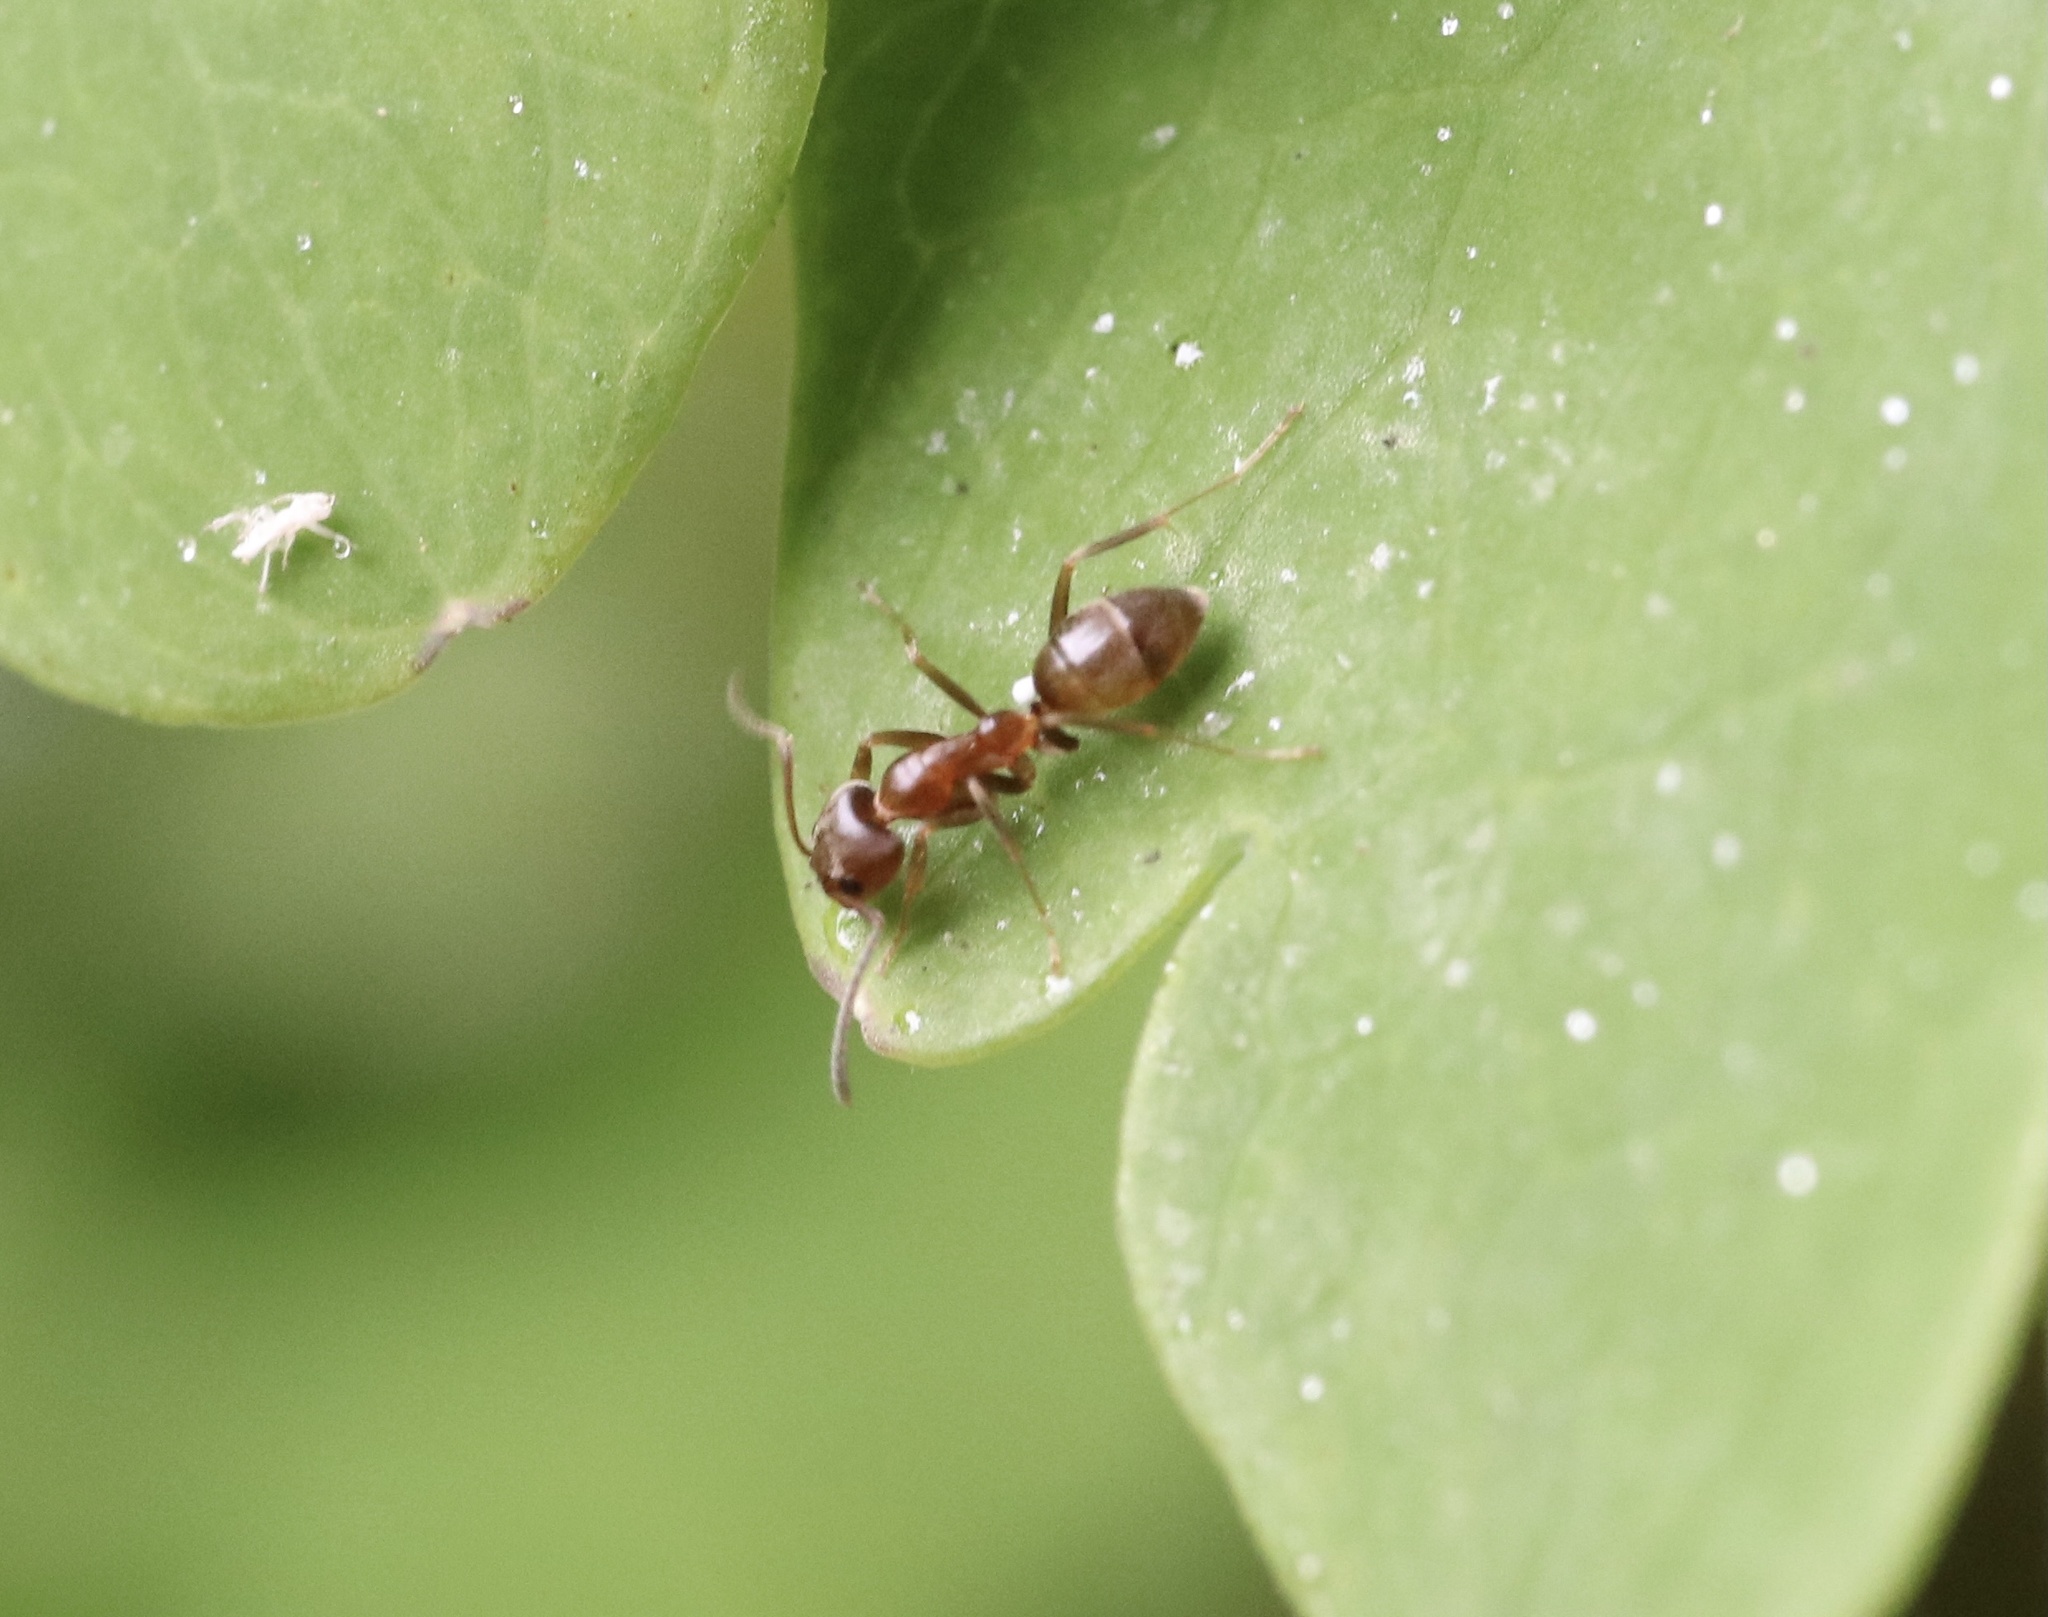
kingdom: Animalia
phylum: Arthropoda
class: Insecta
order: Hymenoptera
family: Formicidae
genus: Linepithema
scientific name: Linepithema humile
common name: Argentine ant
